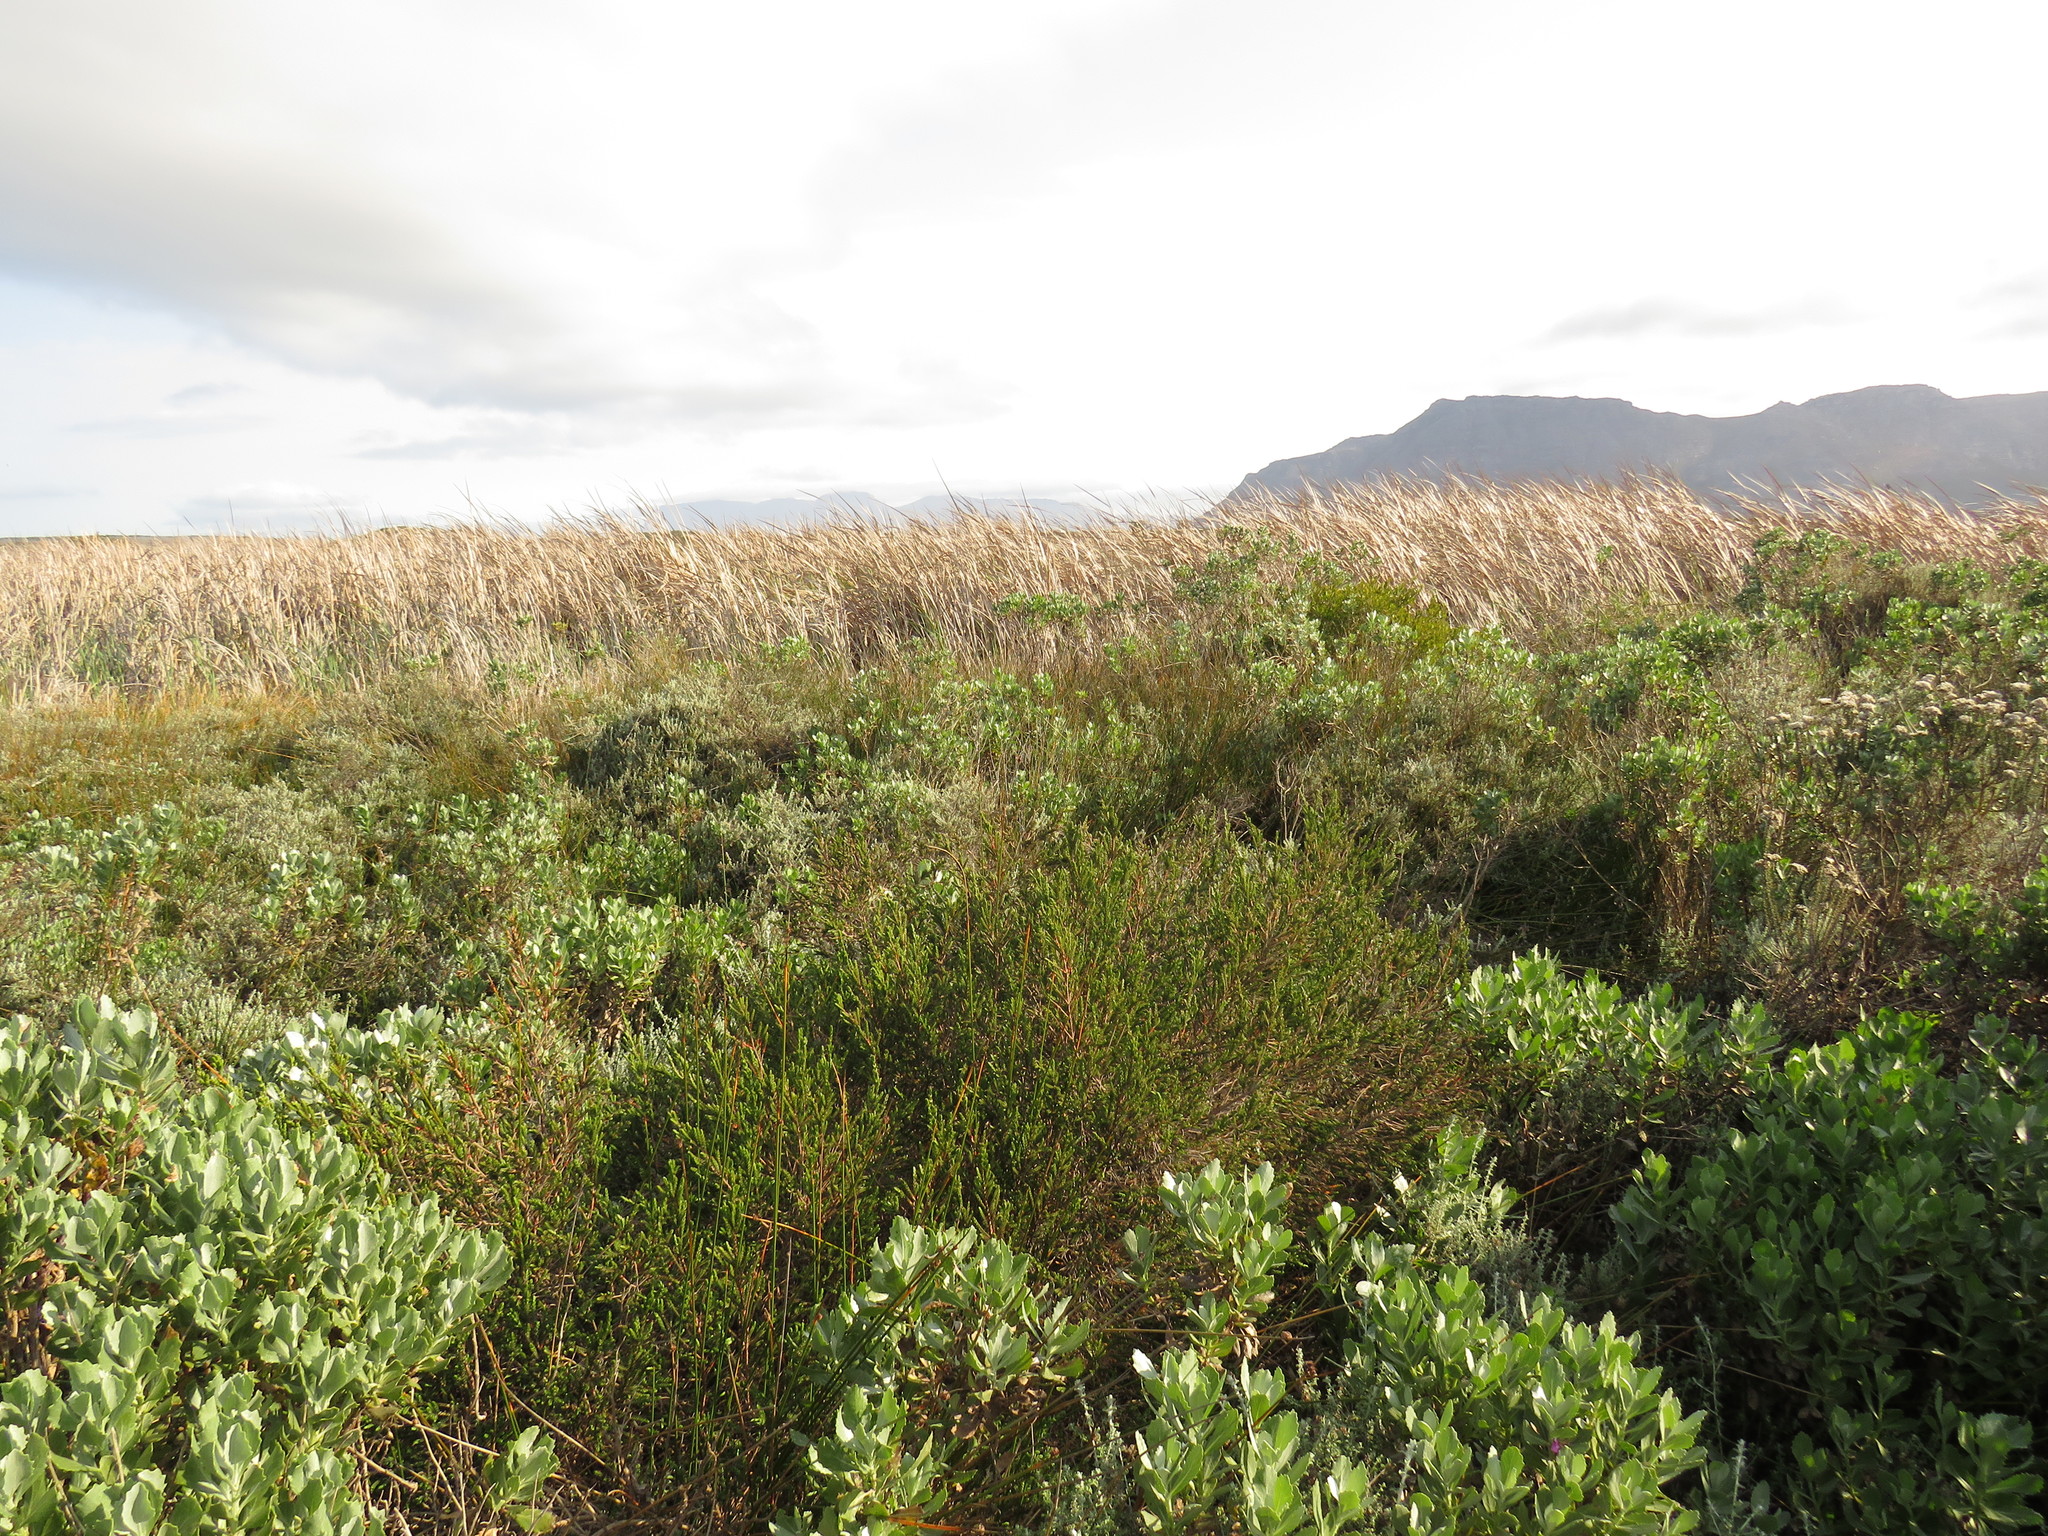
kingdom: Plantae
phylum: Tracheophyta
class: Magnoliopsida
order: Malvales
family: Thymelaeaceae
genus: Passerina
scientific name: Passerina paludosa
